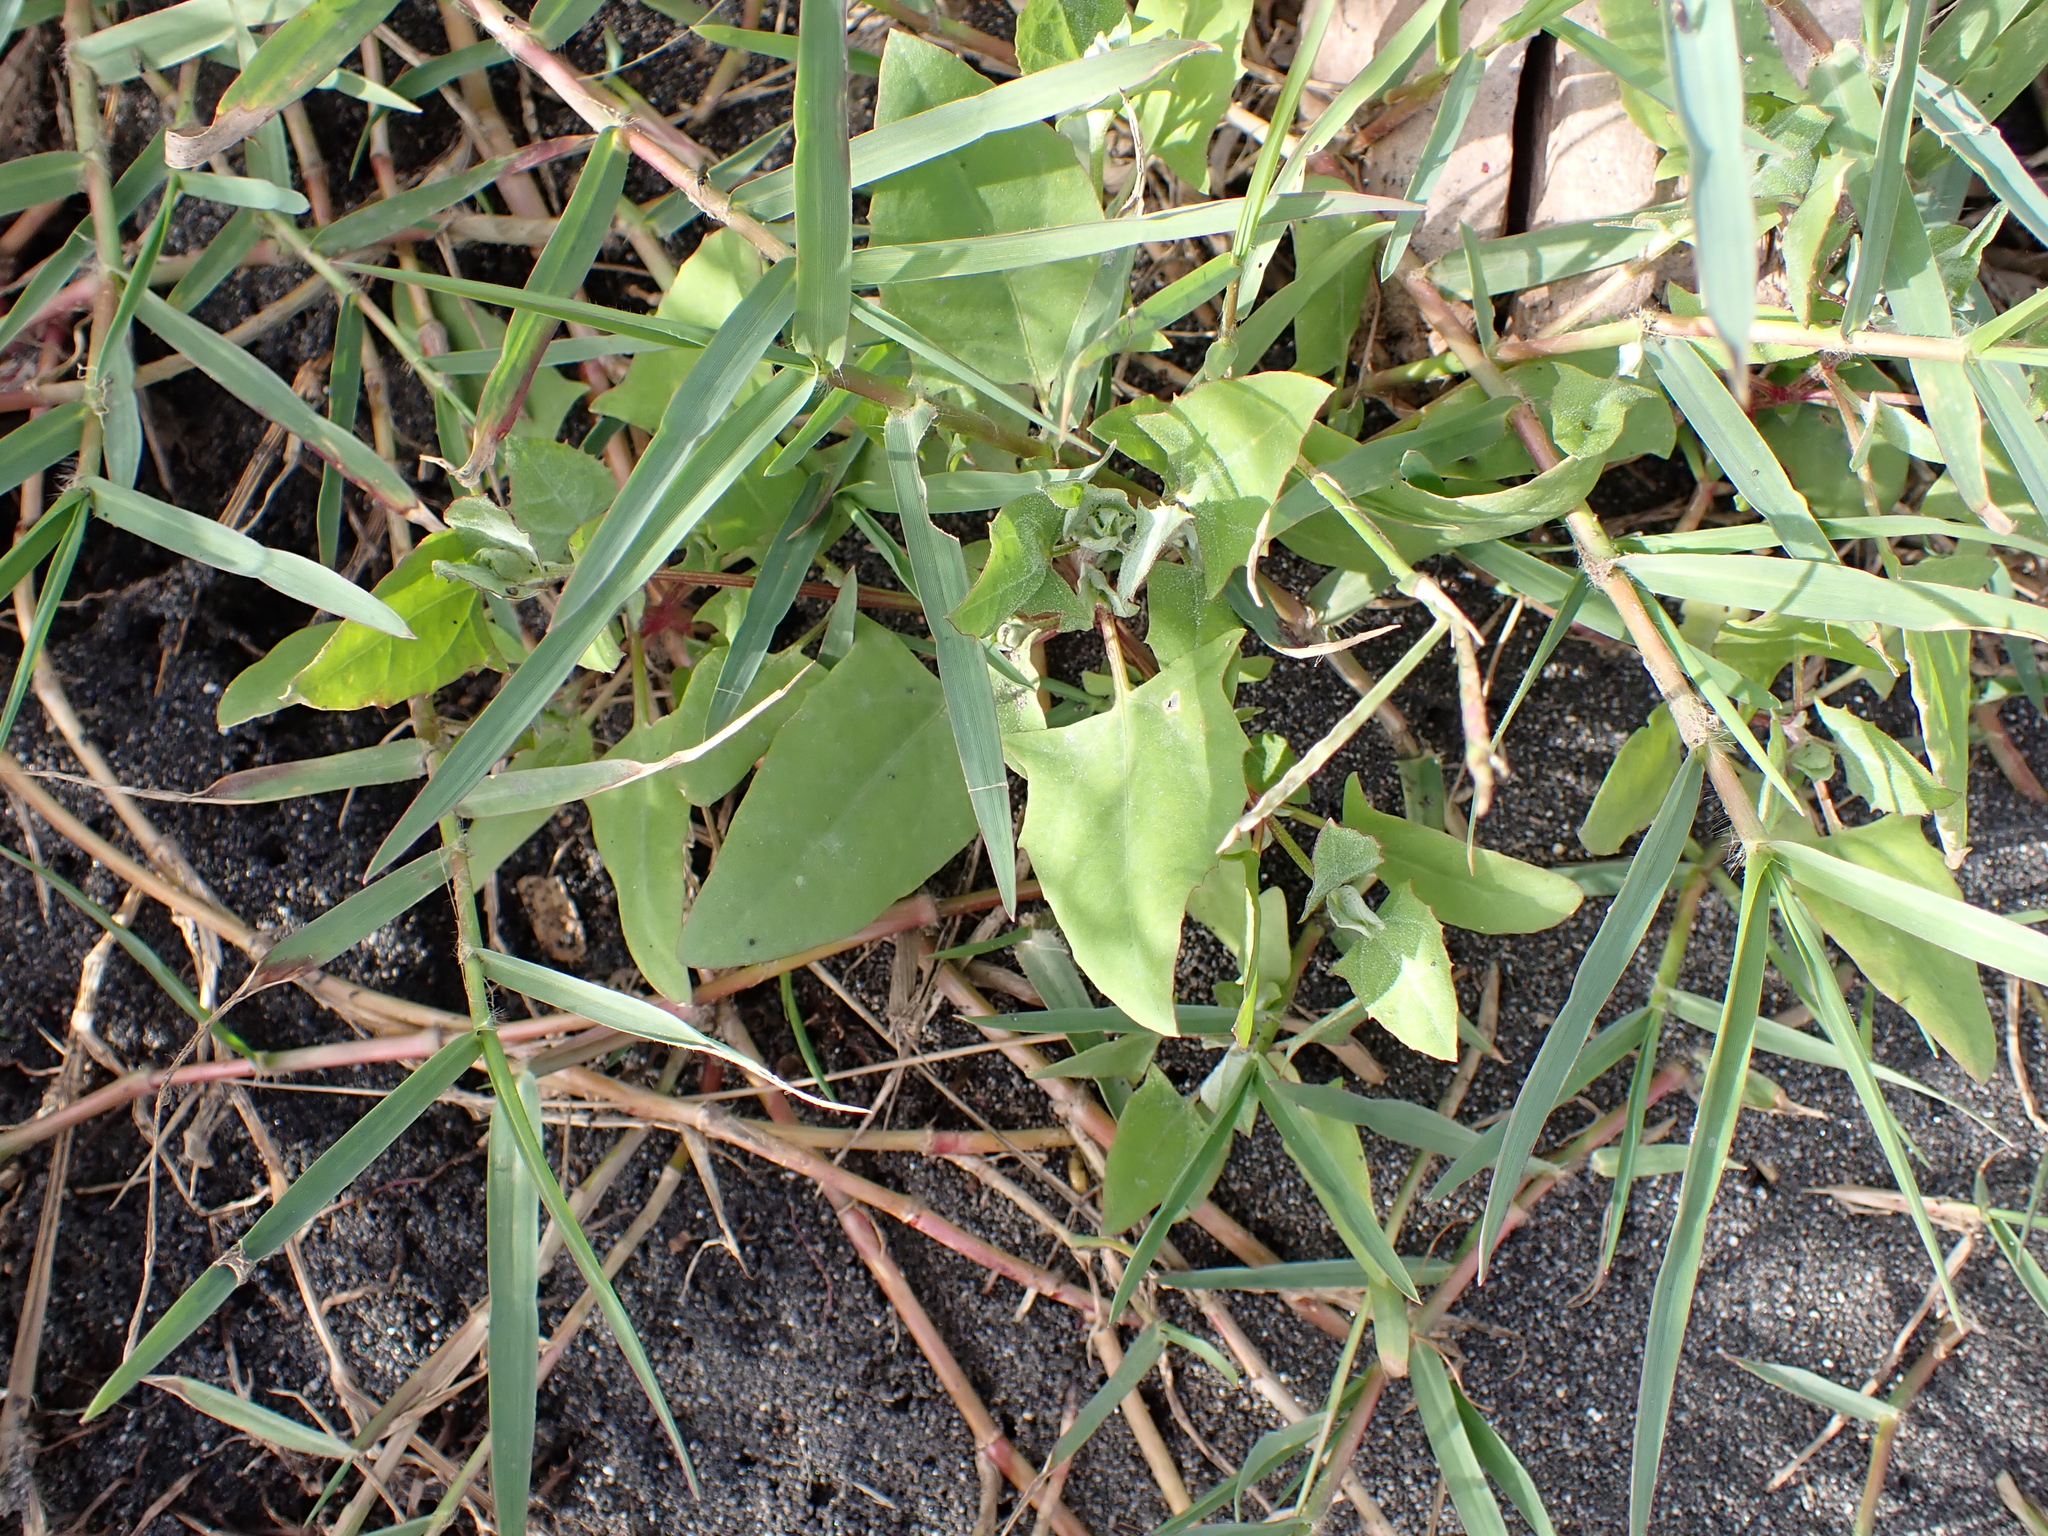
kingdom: Plantae
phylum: Tracheophyta
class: Magnoliopsida
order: Caryophyllales
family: Amaranthaceae
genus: Atriplex
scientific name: Atriplex prostrata
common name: Spear-leaved orache
